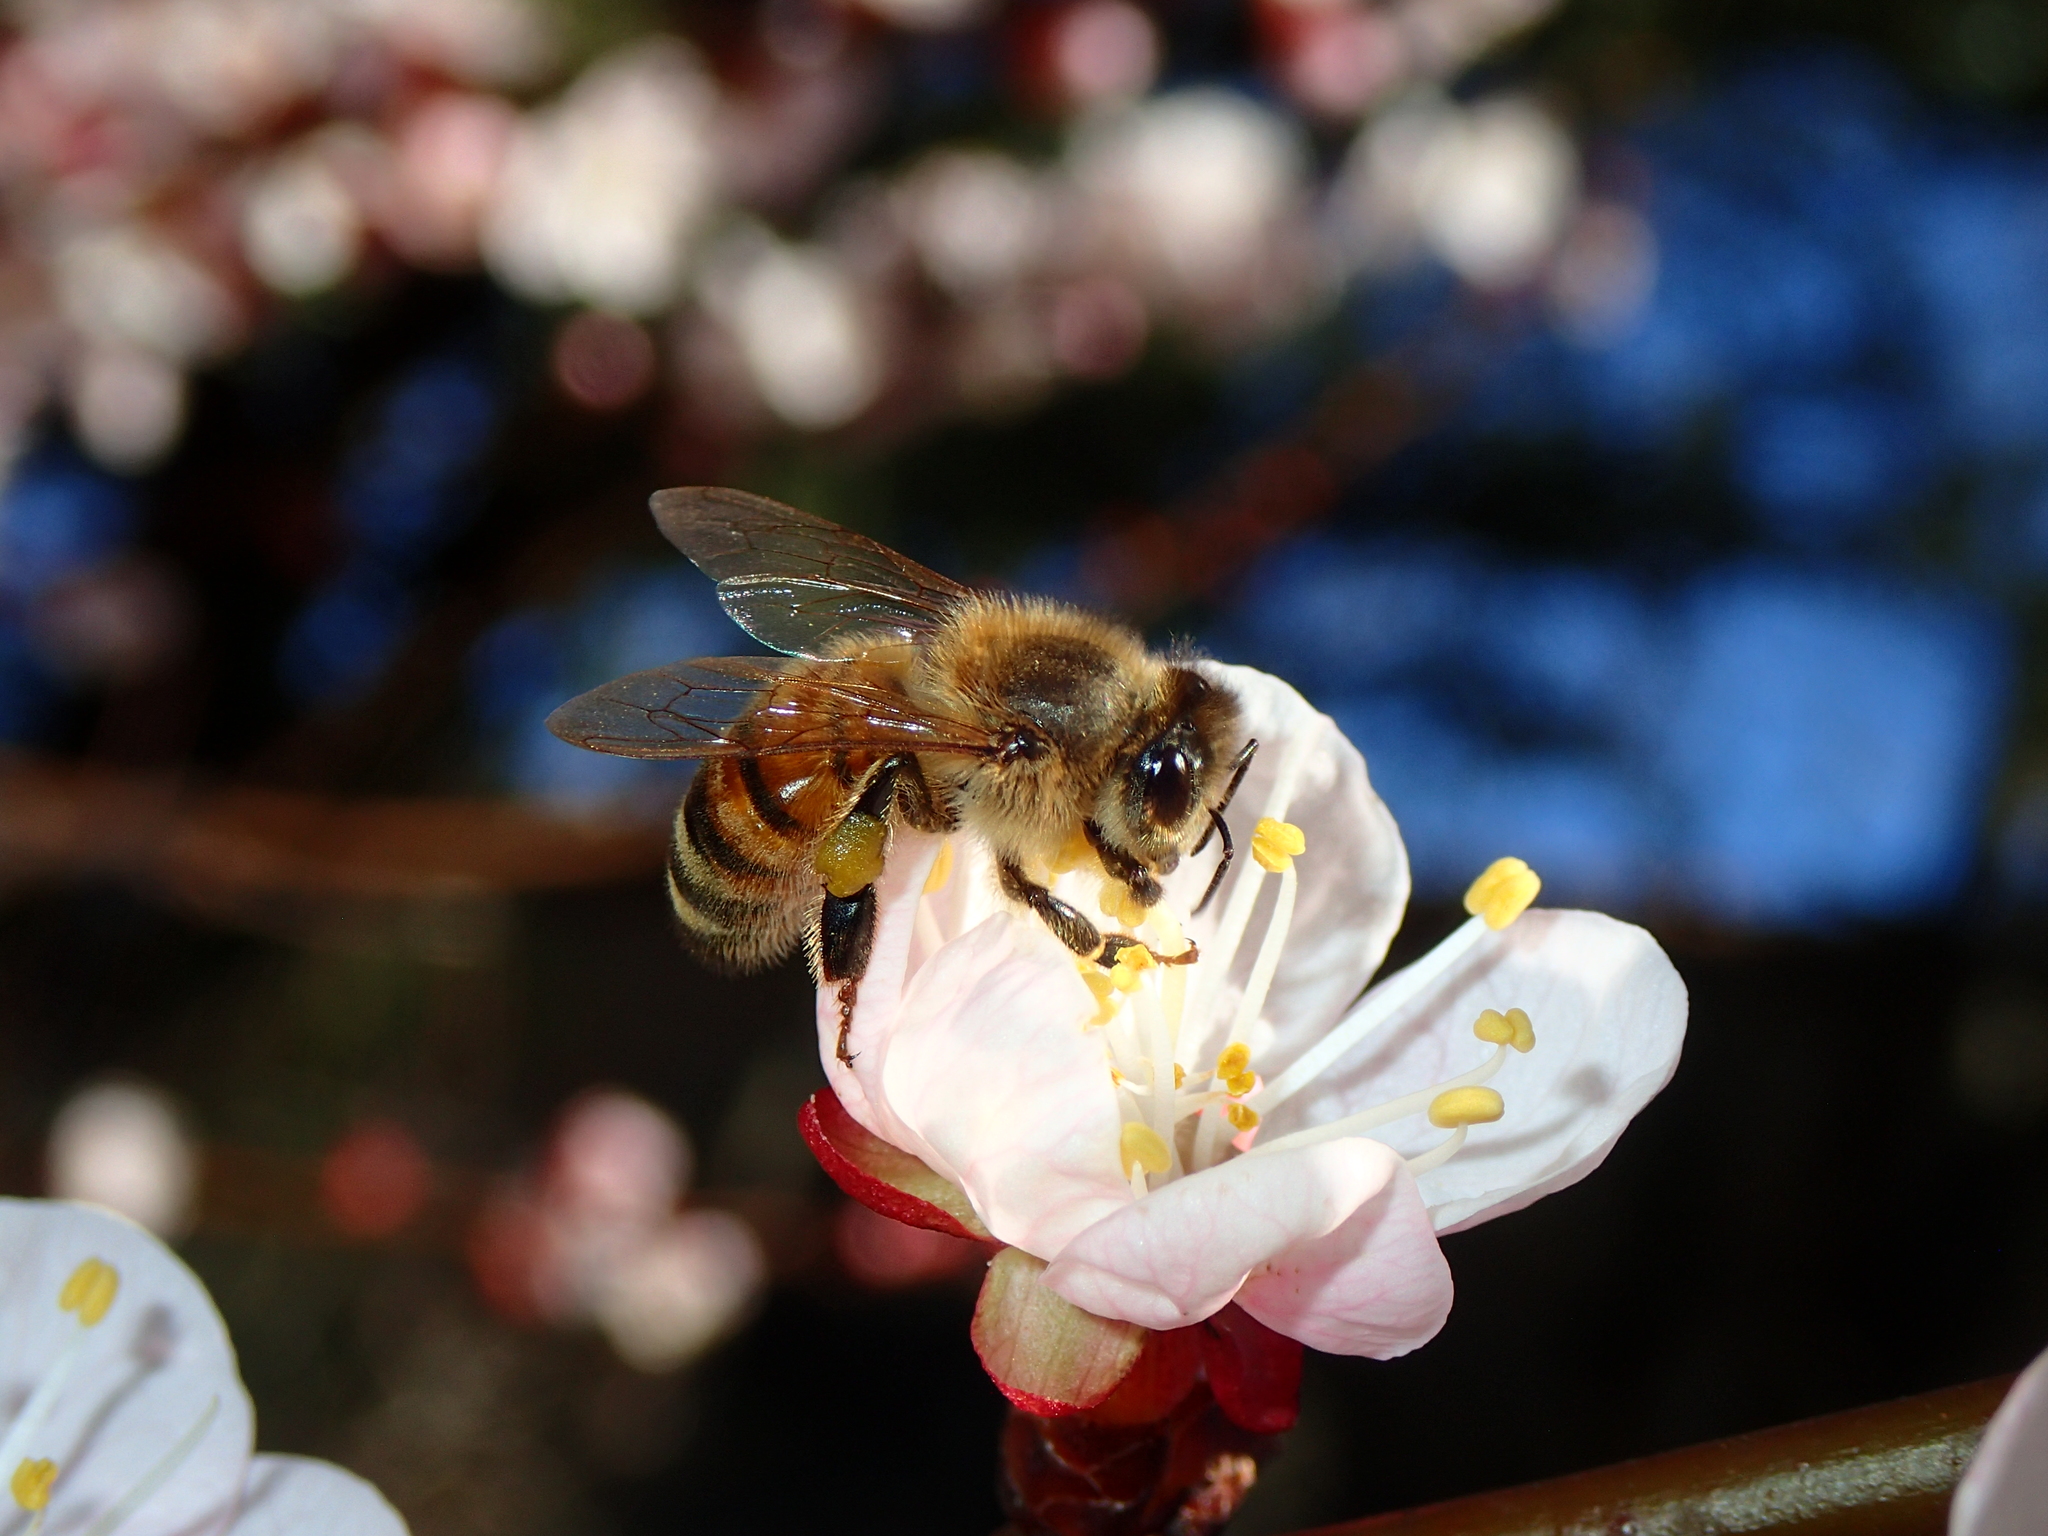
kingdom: Animalia
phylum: Arthropoda
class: Insecta
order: Hymenoptera
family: Apidae
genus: Apis
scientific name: Apis mellifera
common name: Honey bee
